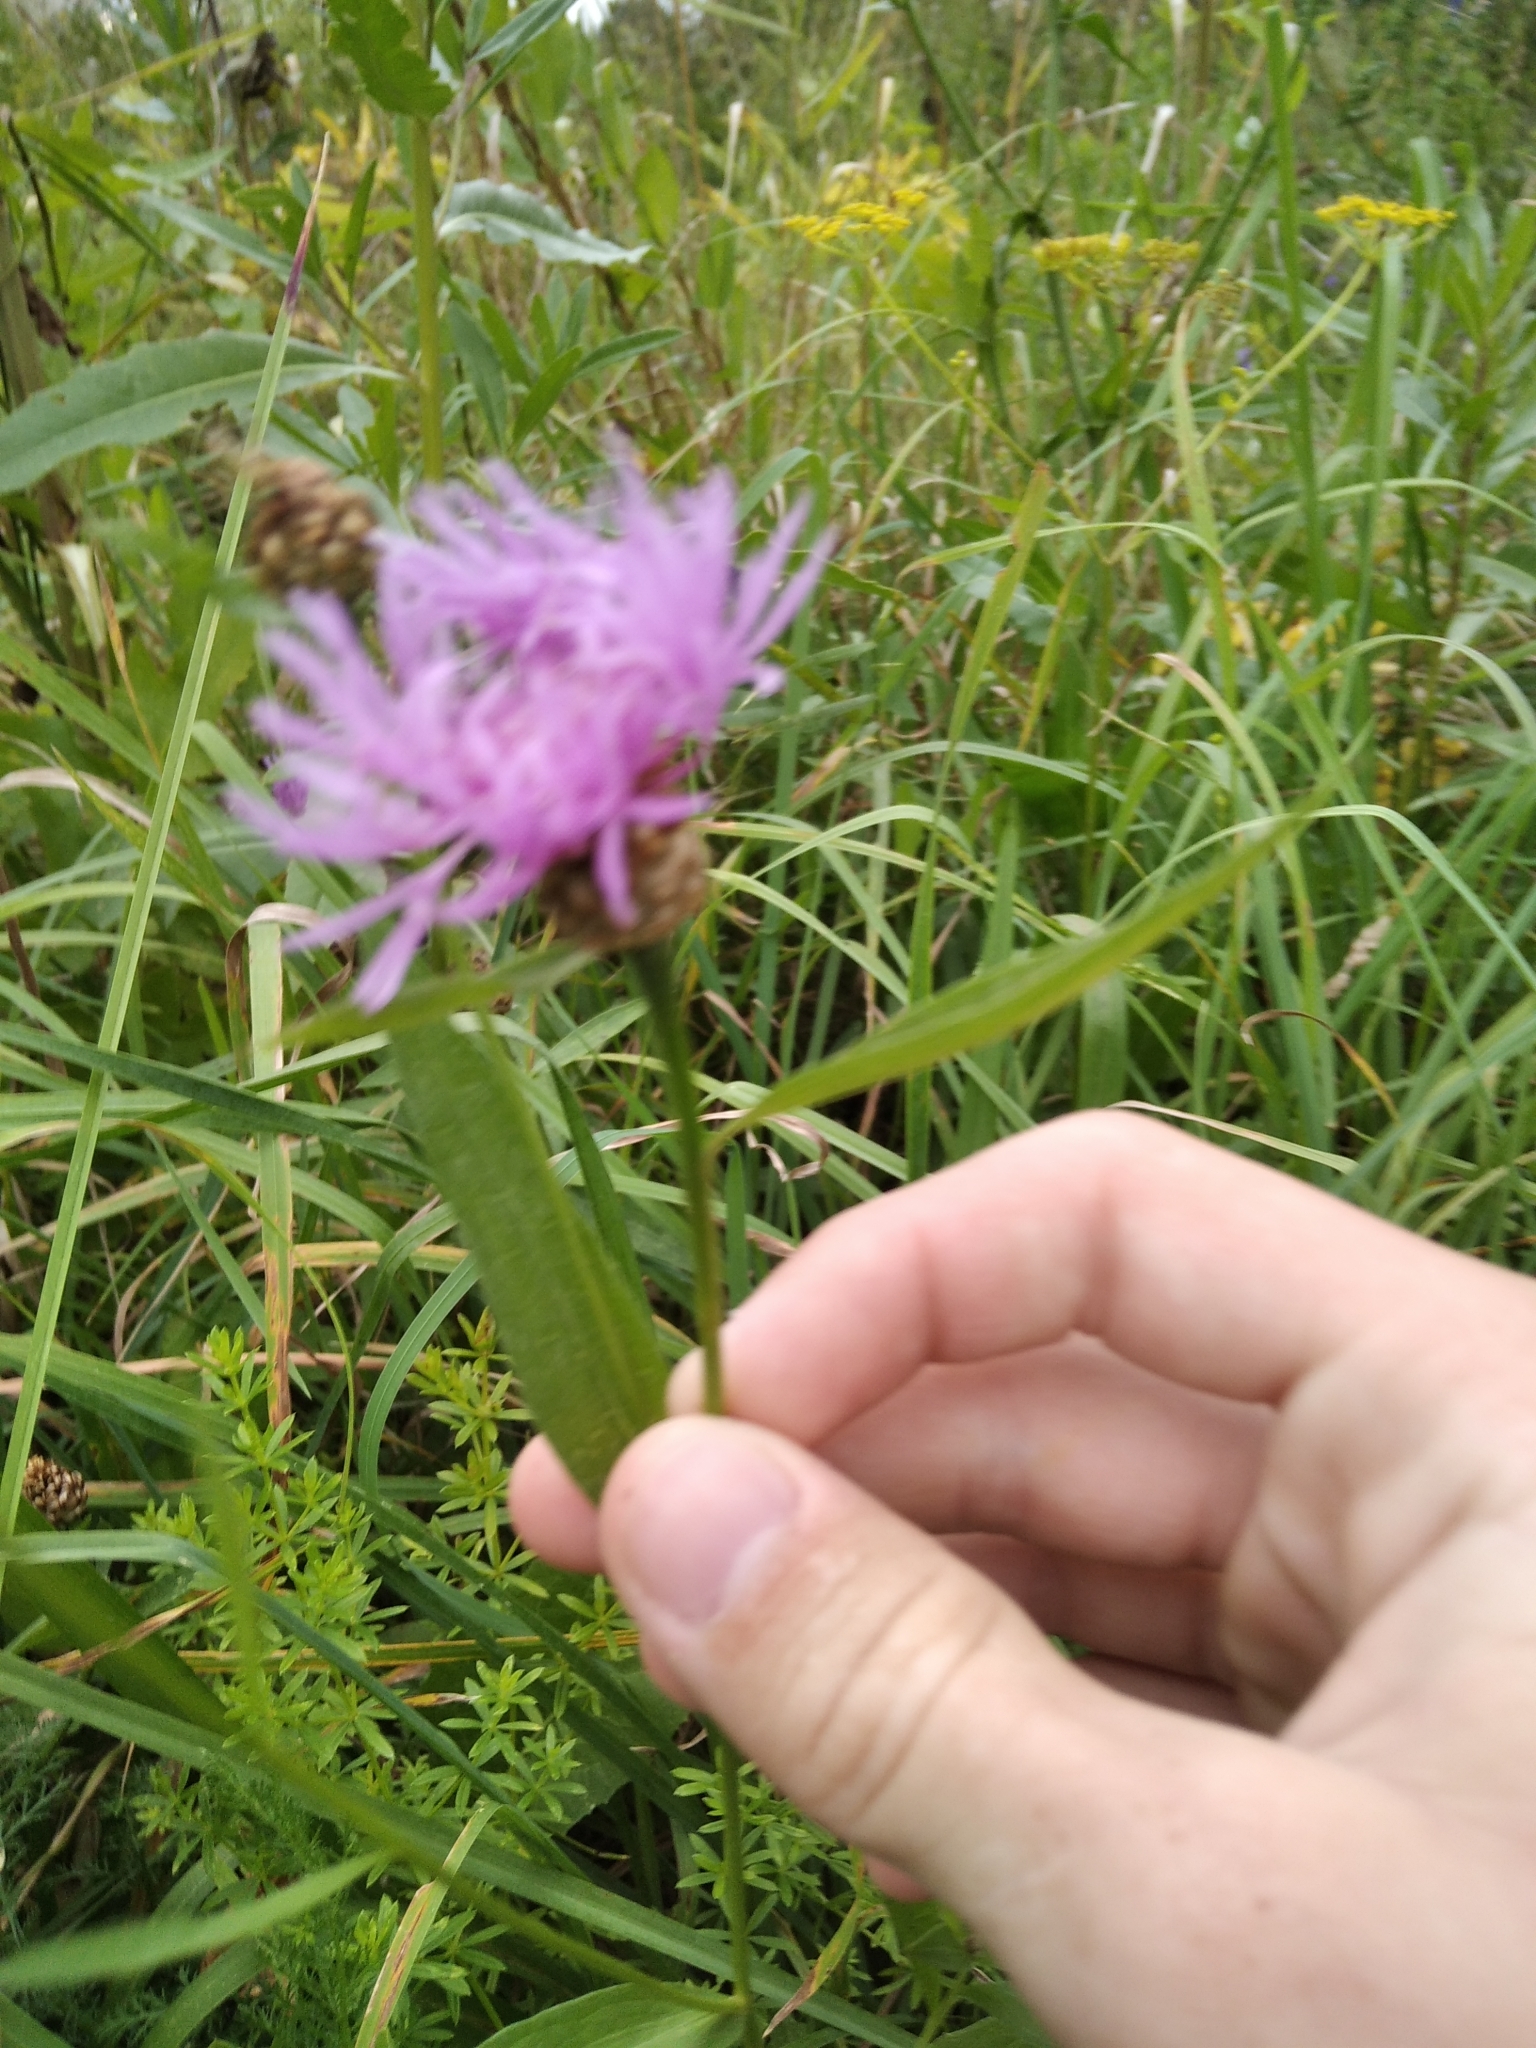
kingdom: Plantae
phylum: Tracheophyta
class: Magnoliopsida
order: Asterales
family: Asteraceae
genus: Centaurea
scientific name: Centaurea jacea
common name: Brown knapweed
